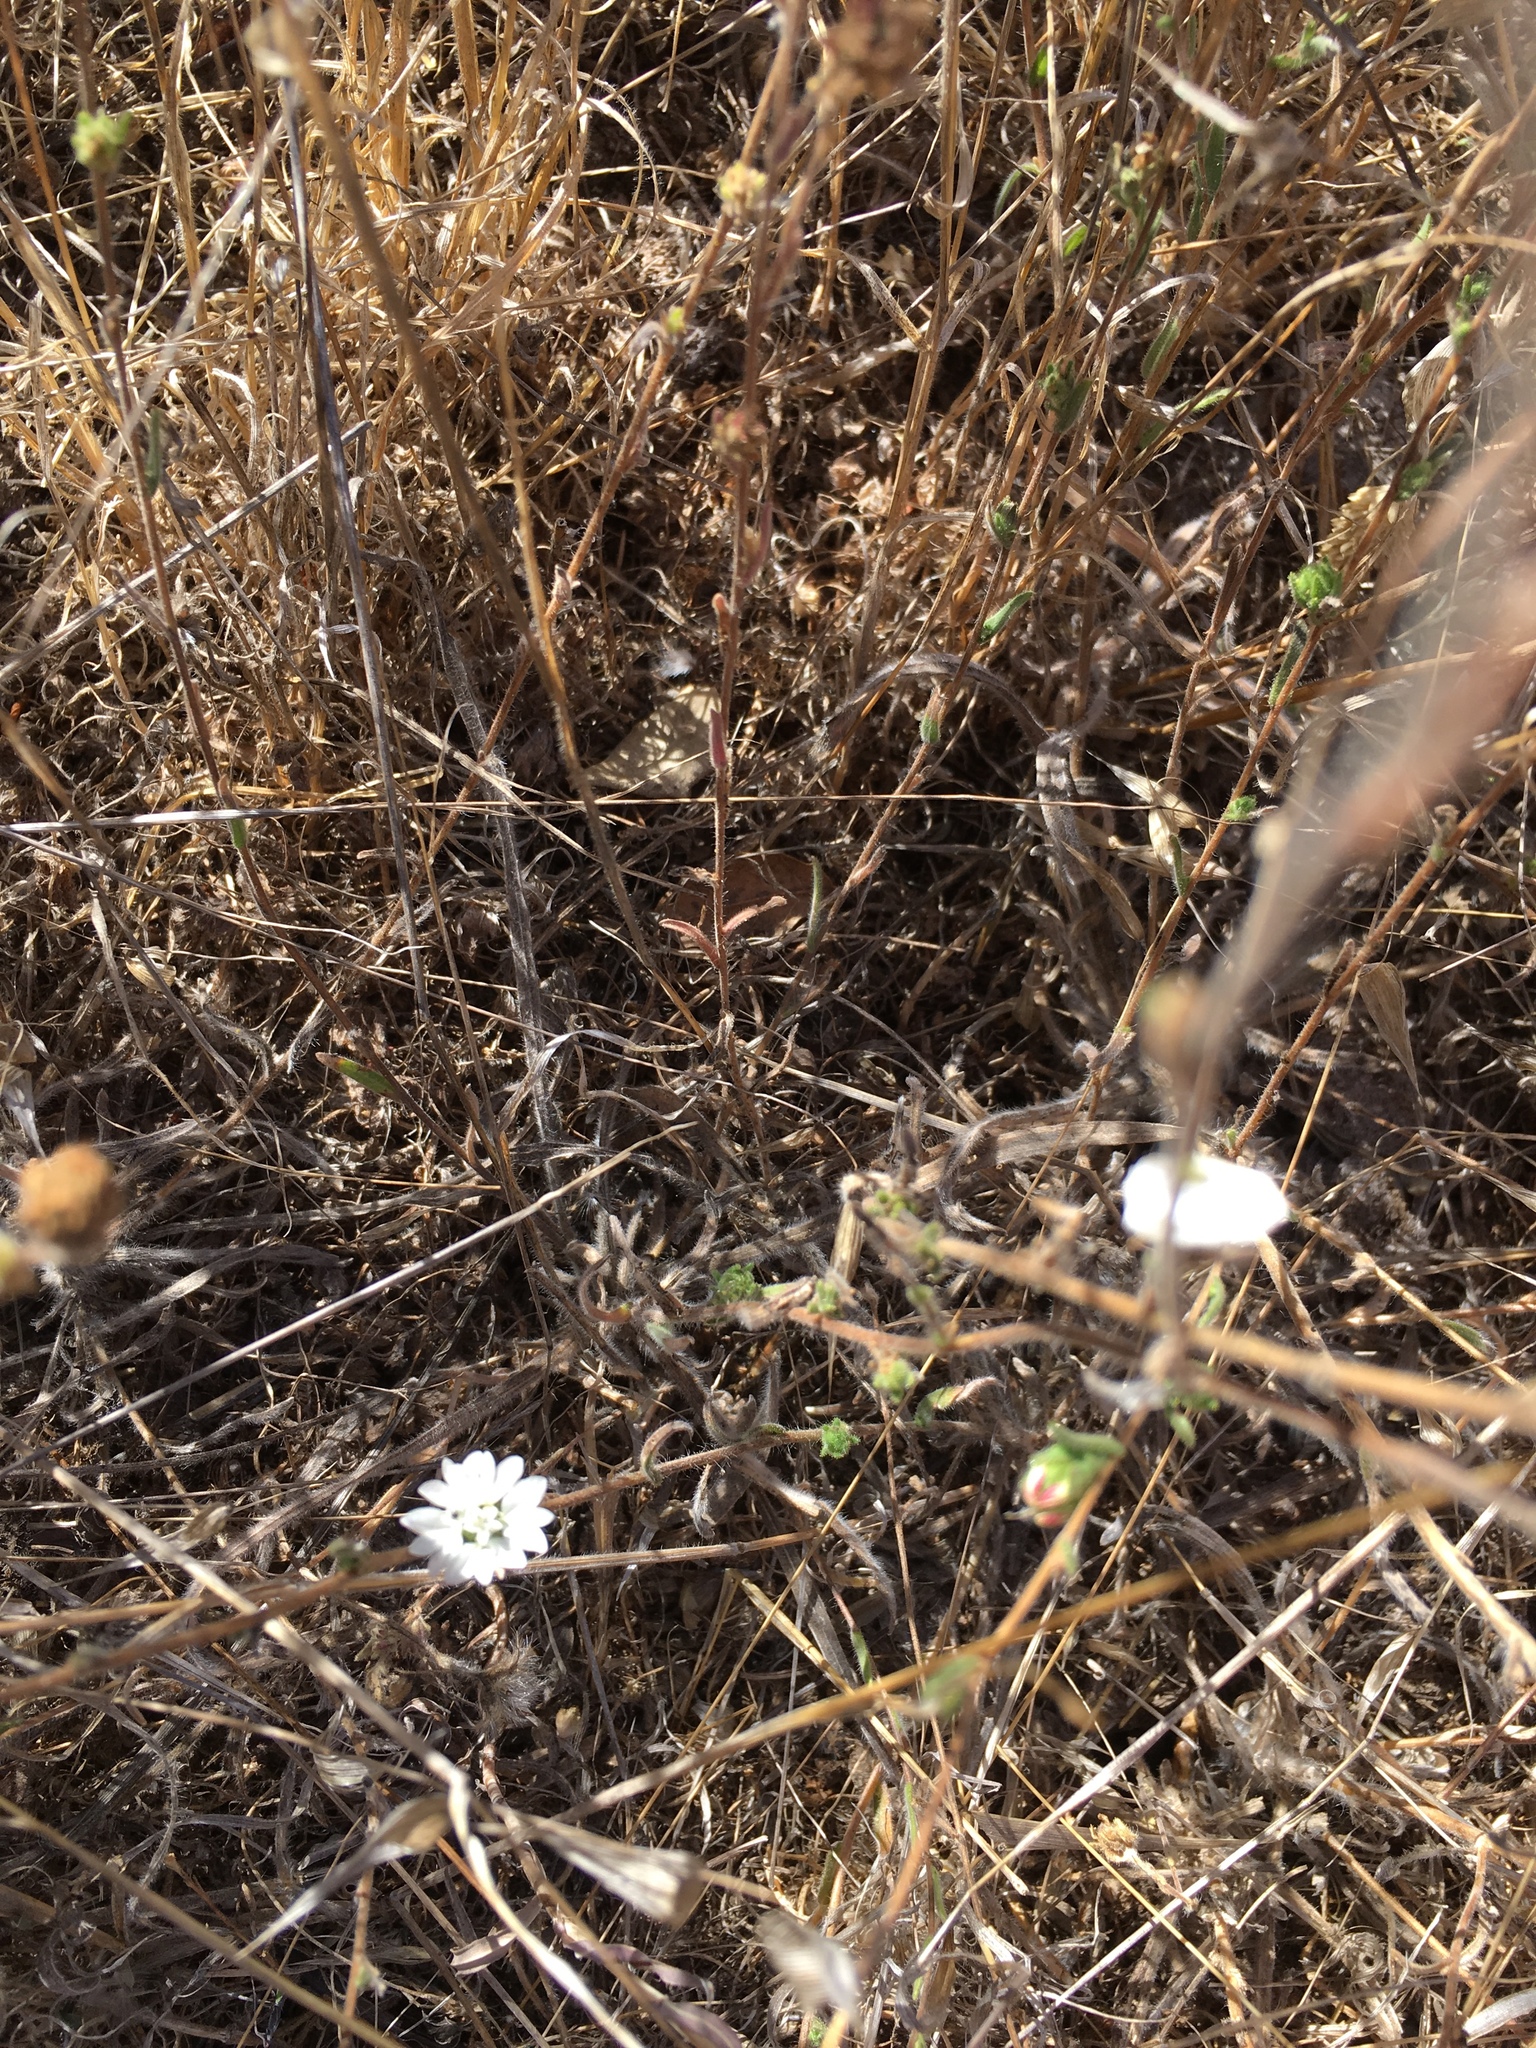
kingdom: Plantae
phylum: Tracheophyta
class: Magnoliopsida
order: Asterales
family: Asteraceae
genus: Hemizonia
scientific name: Hemizonia congesta
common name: Hayfield tarweed
